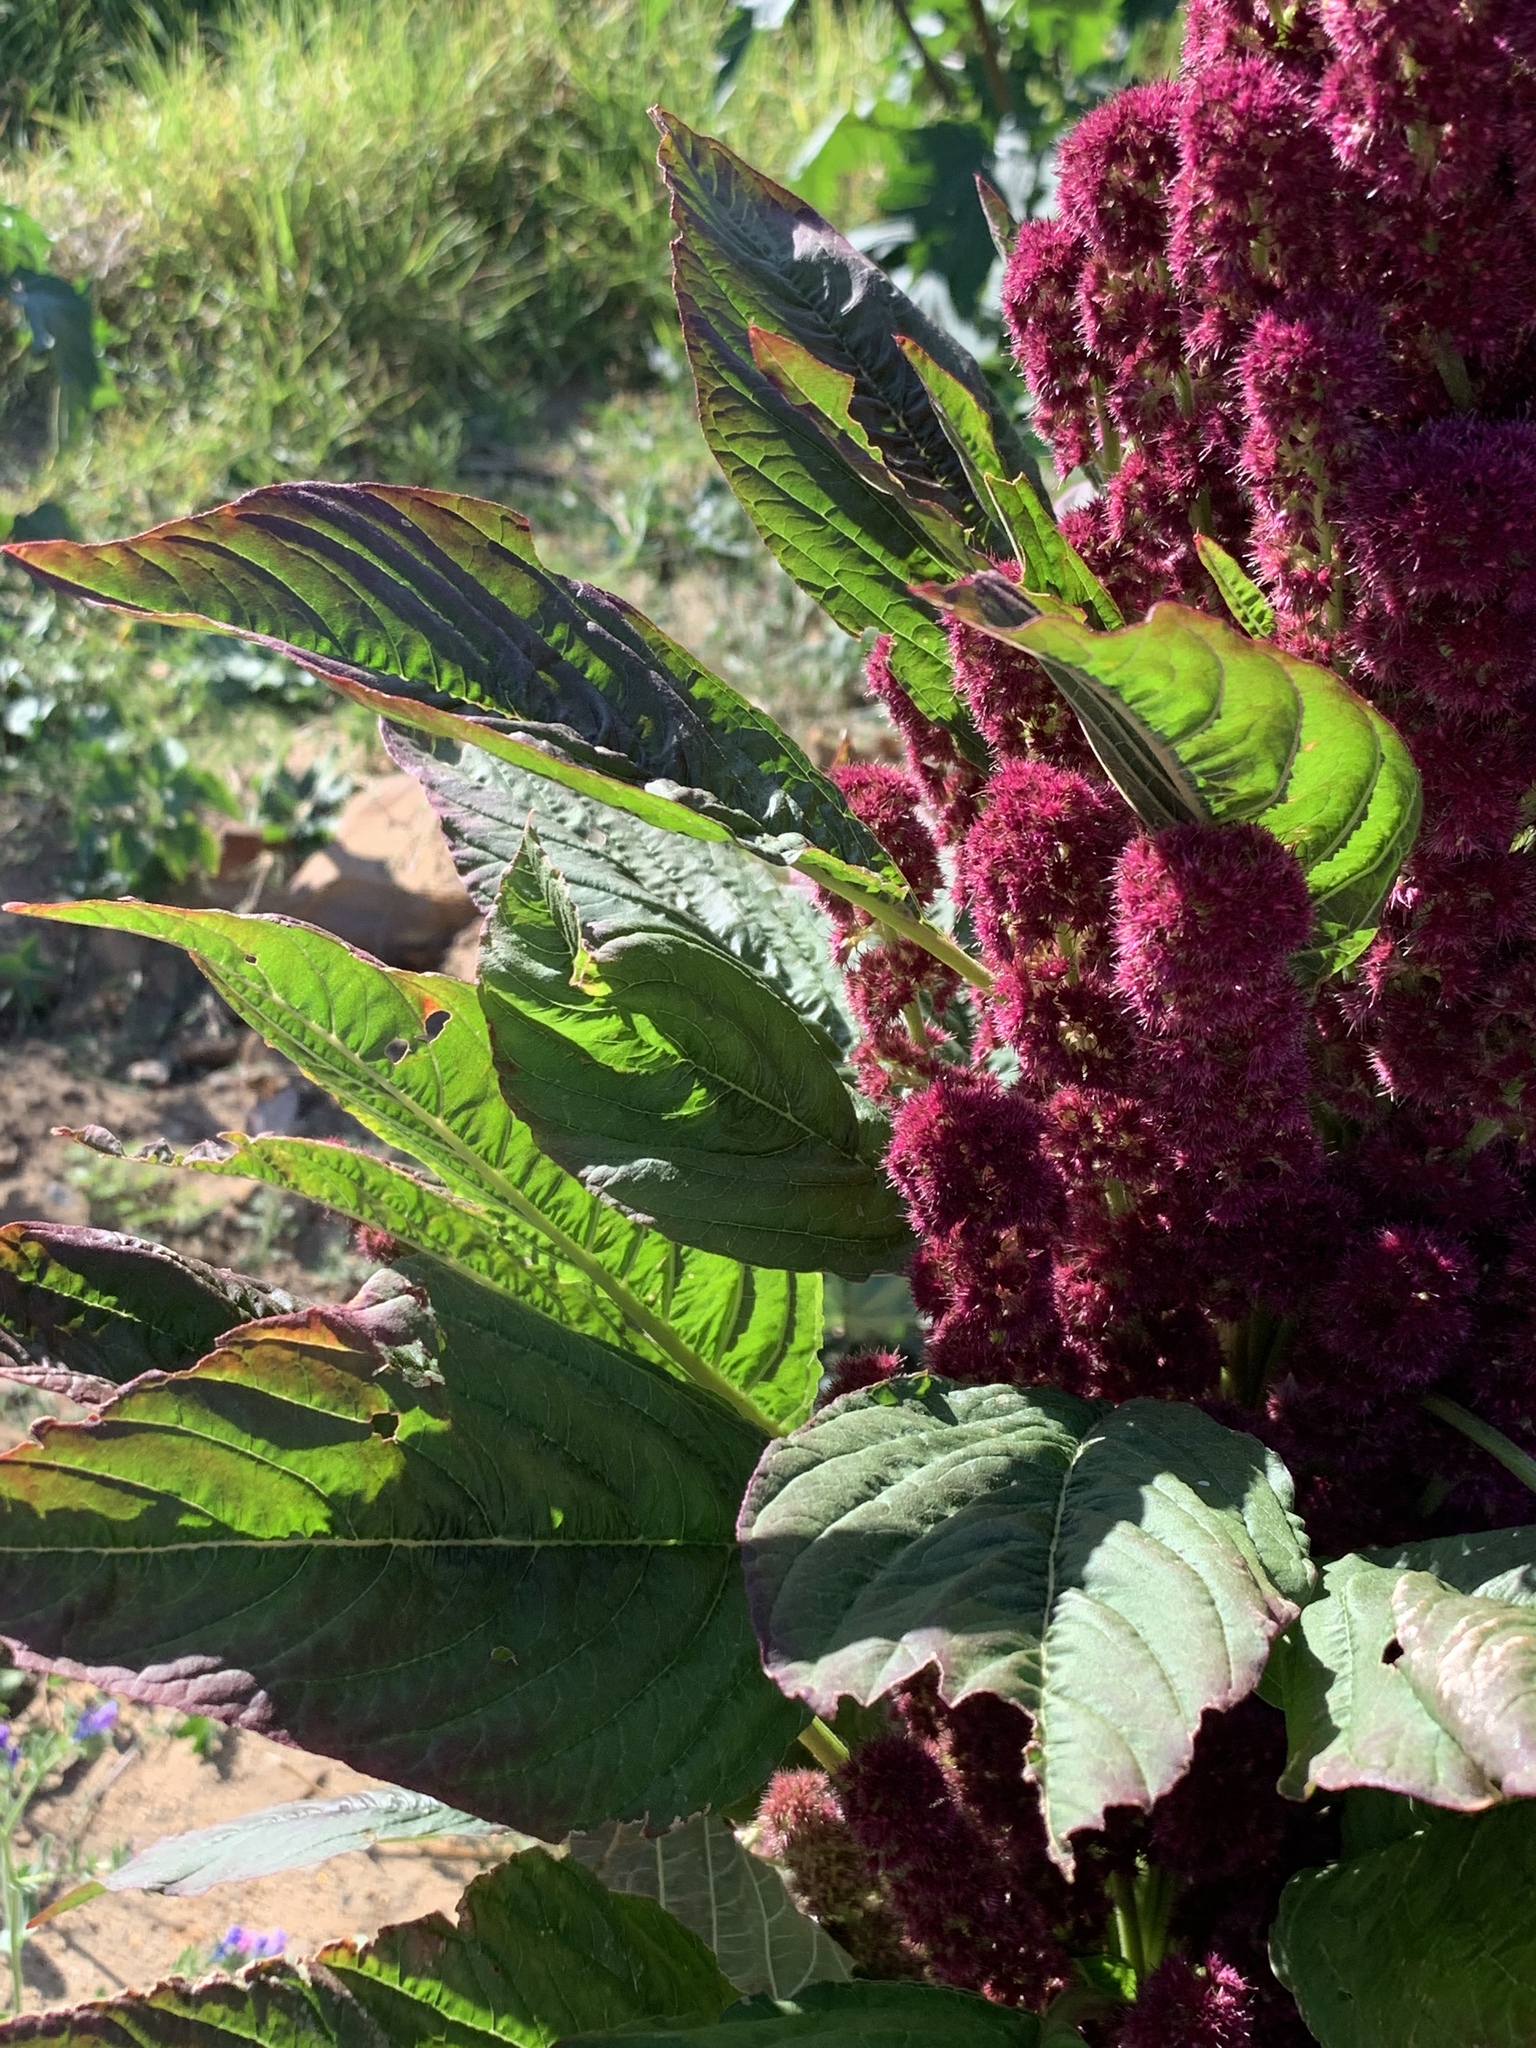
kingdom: Plantae
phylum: Tracheophyta
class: Magnoliopsida
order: Caryophyllales
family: Amaranthaceae
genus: Amaranthus
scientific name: Amaranthus cruentus
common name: Purple amaranth
